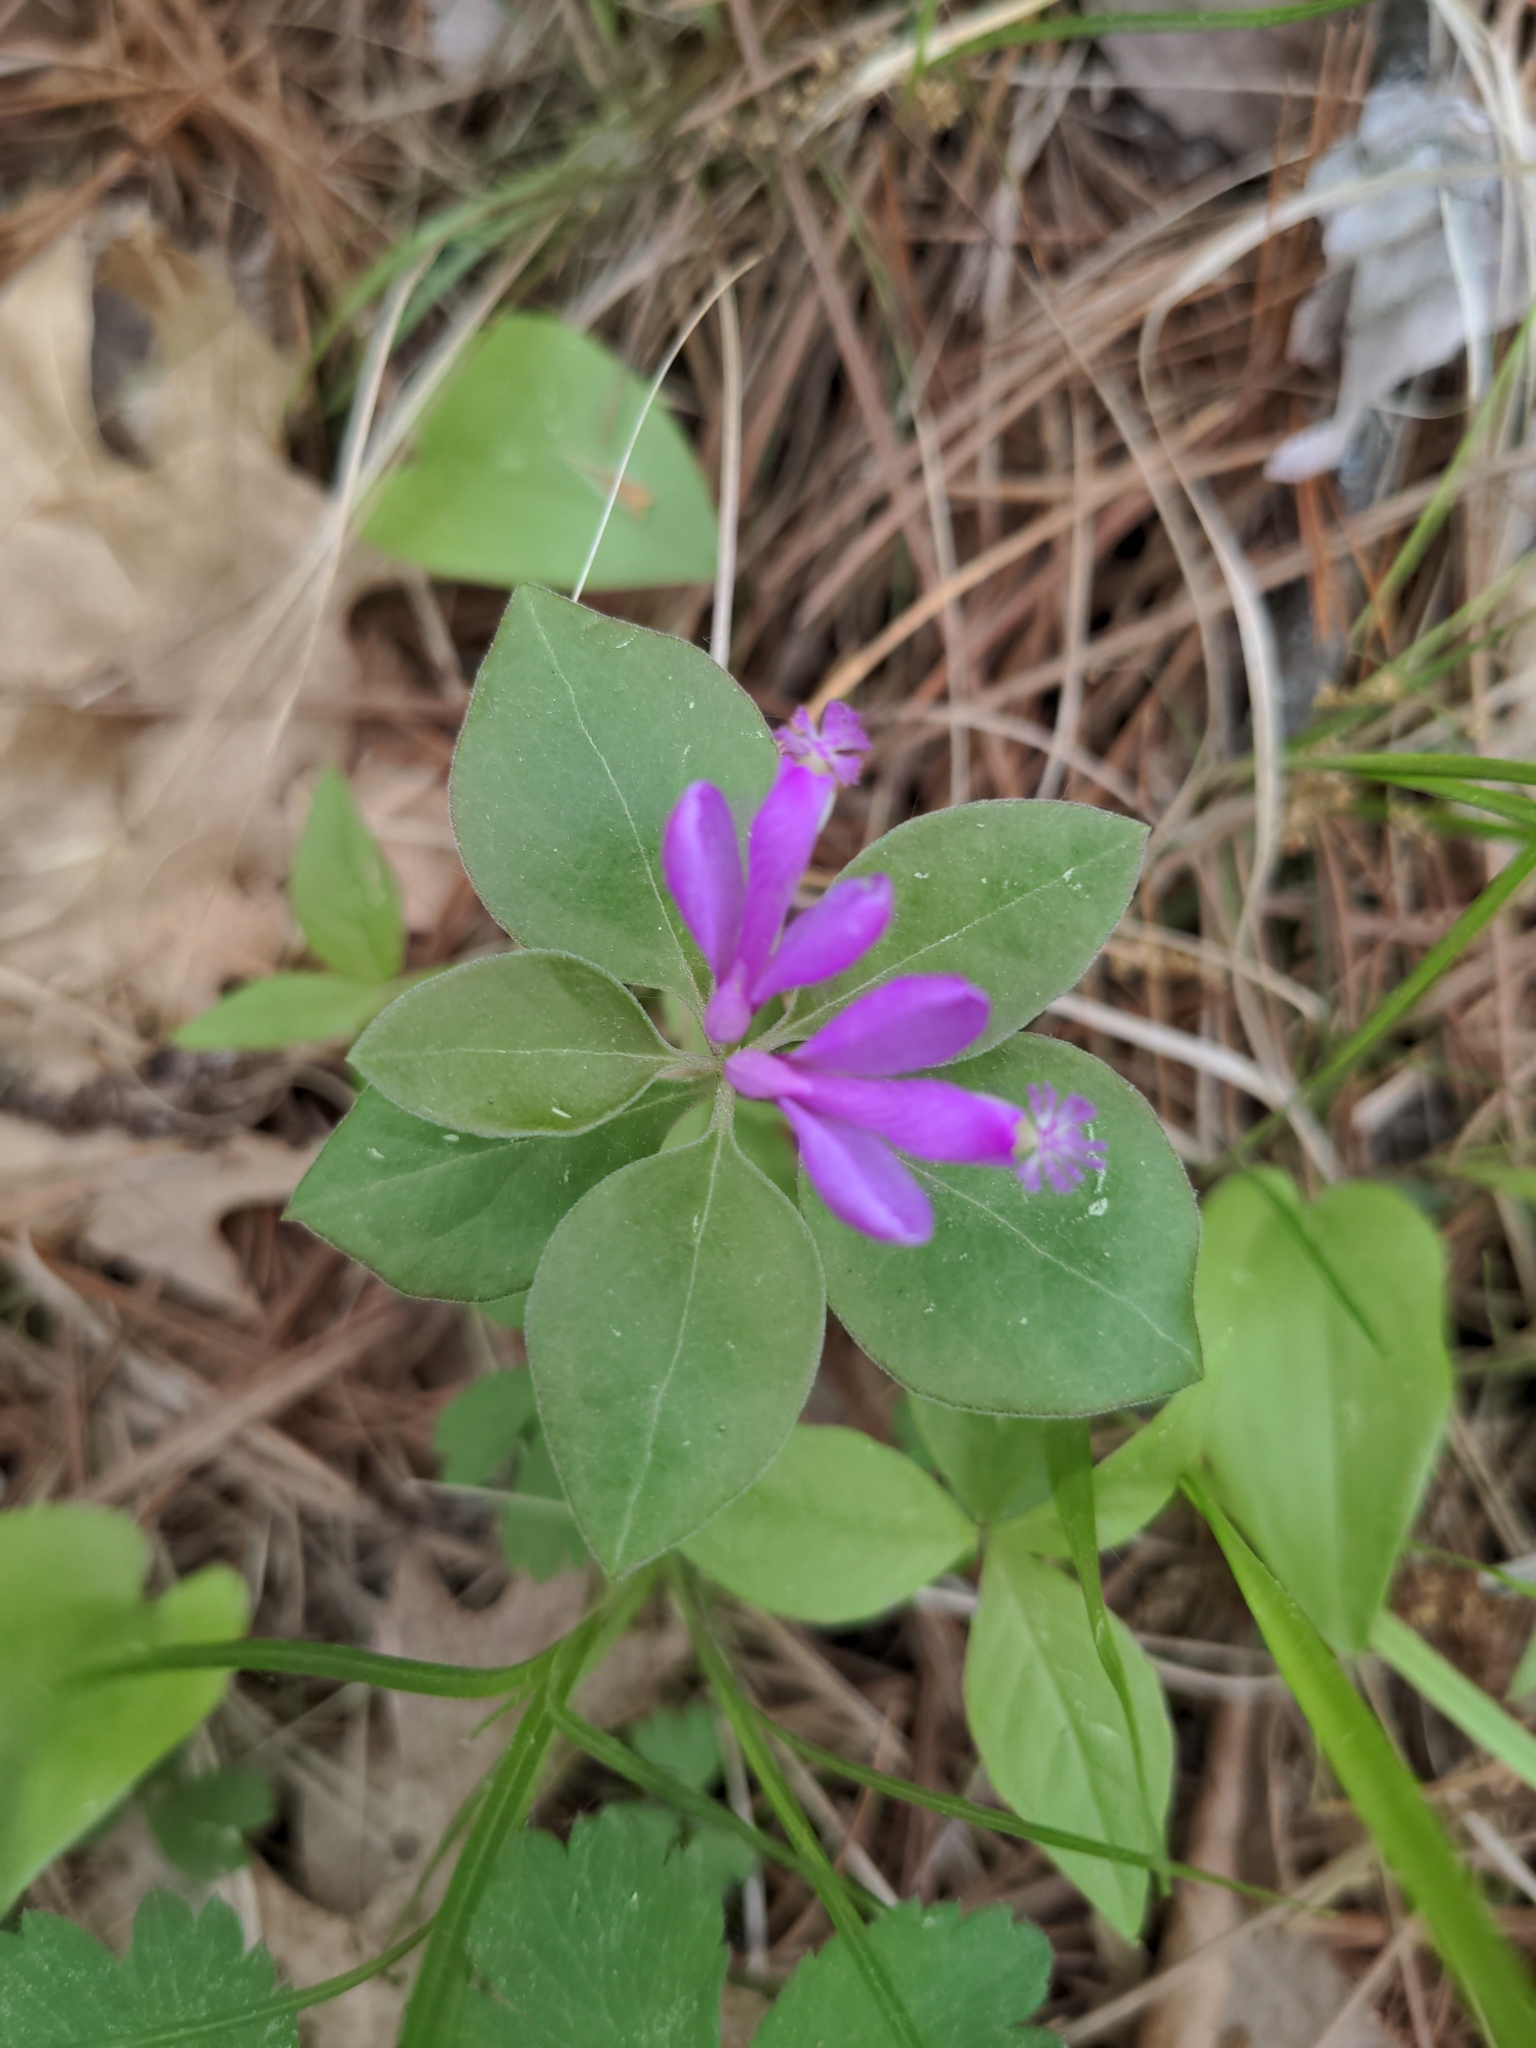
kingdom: Plantae
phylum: Tracheophyta
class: Magnoliopsida
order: Fabales
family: Polygalaceae
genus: Polygaloides
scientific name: Polygaloides paucifolia
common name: Bird-on-the-wing
